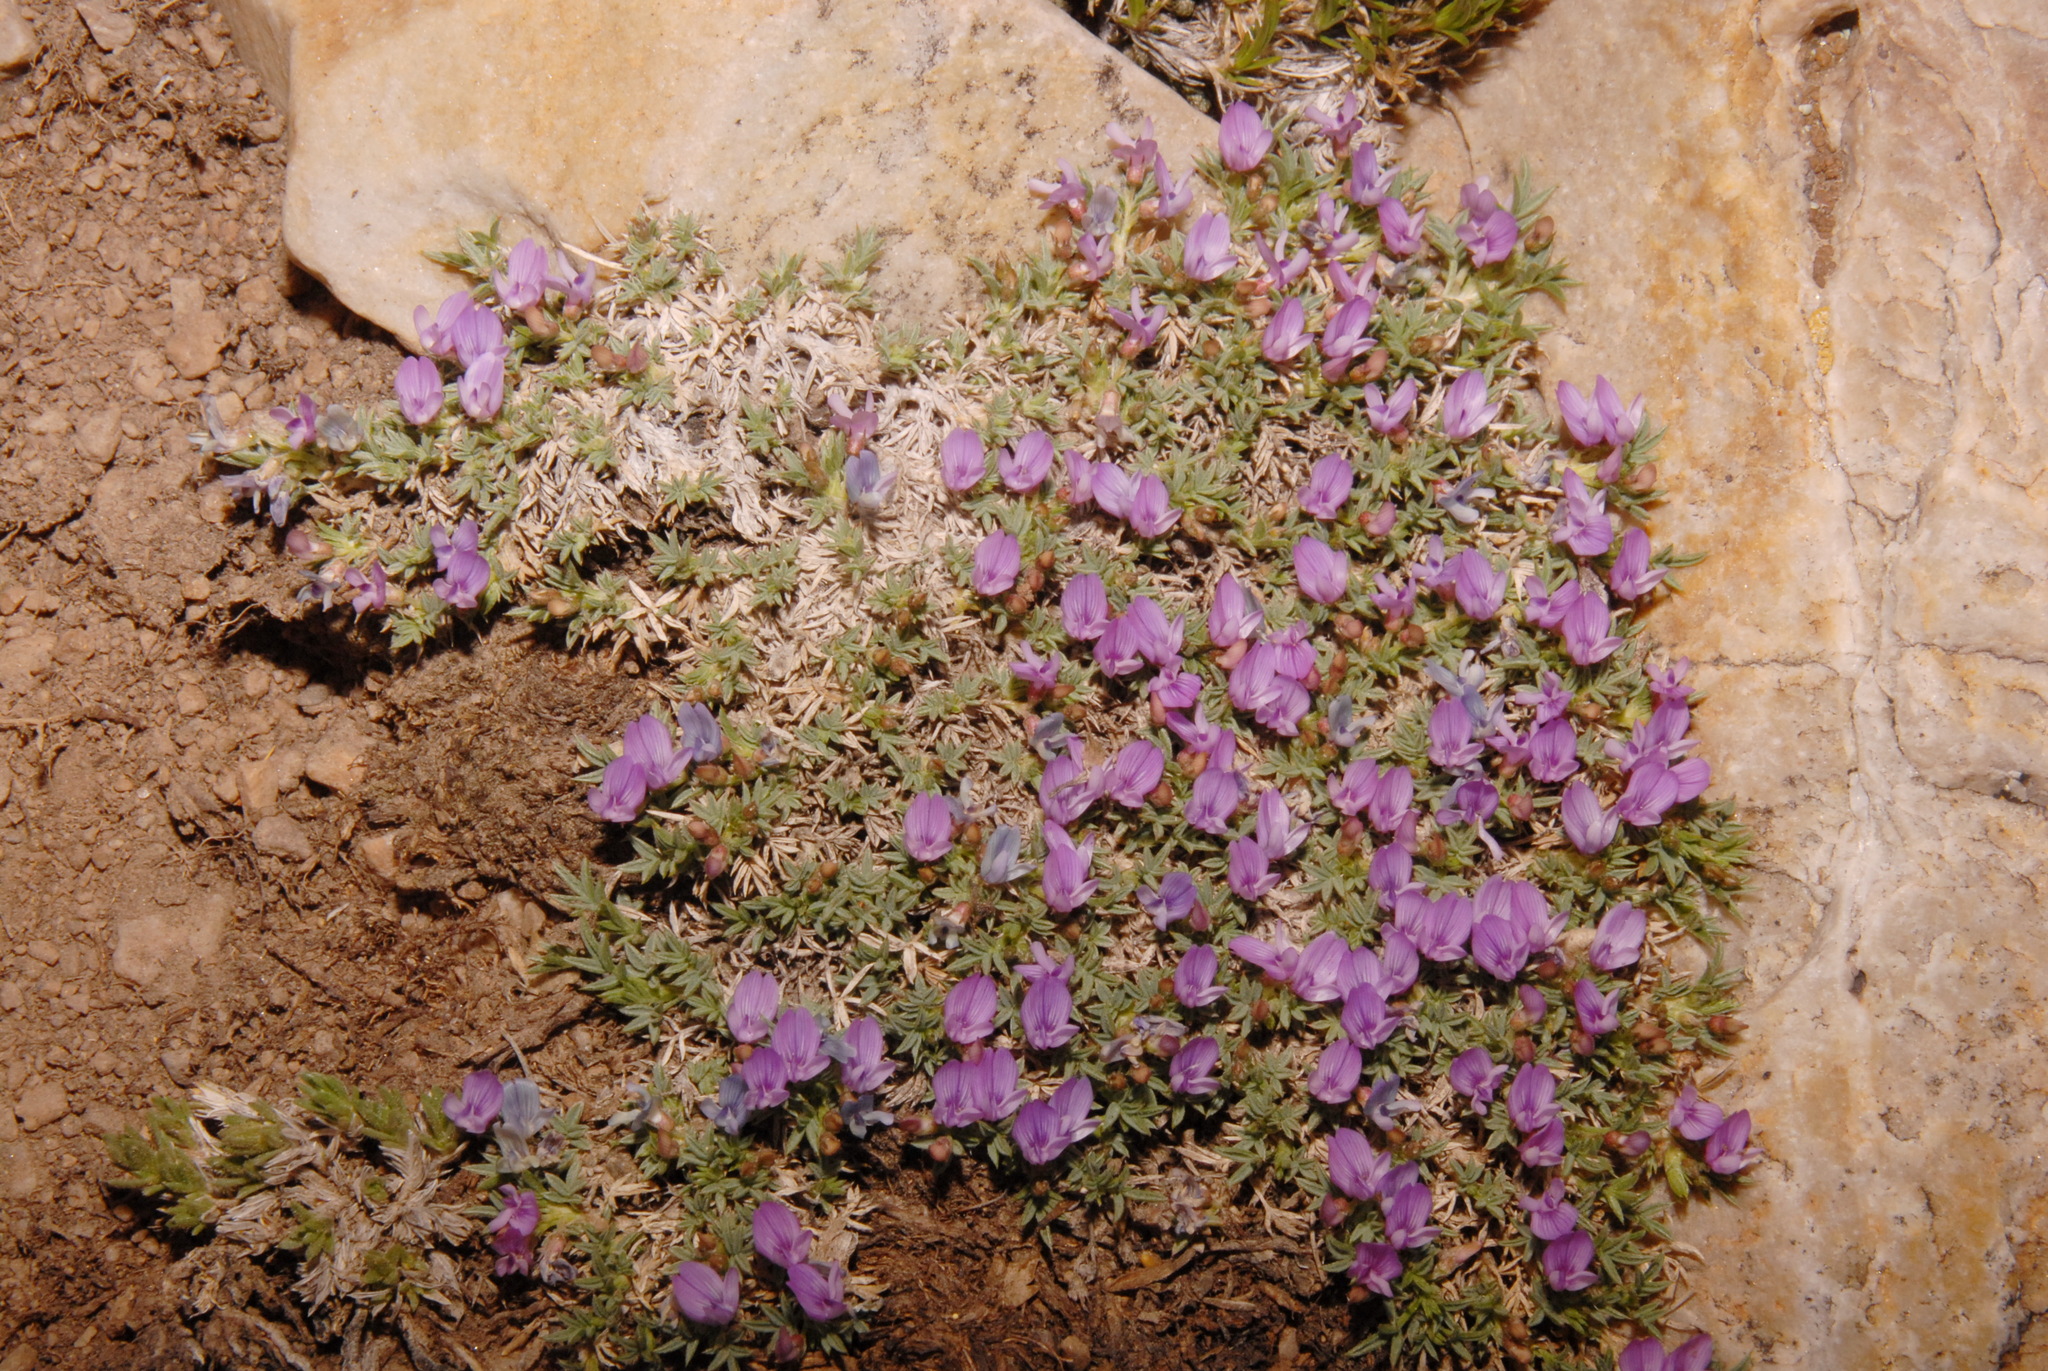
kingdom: Plantae
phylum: Tracheophyta
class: Magnoliopsida
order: Fabales
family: Fabaceae
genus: Astragalus
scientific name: Astragalus kentrophyta
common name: Prickly milk-vetch
